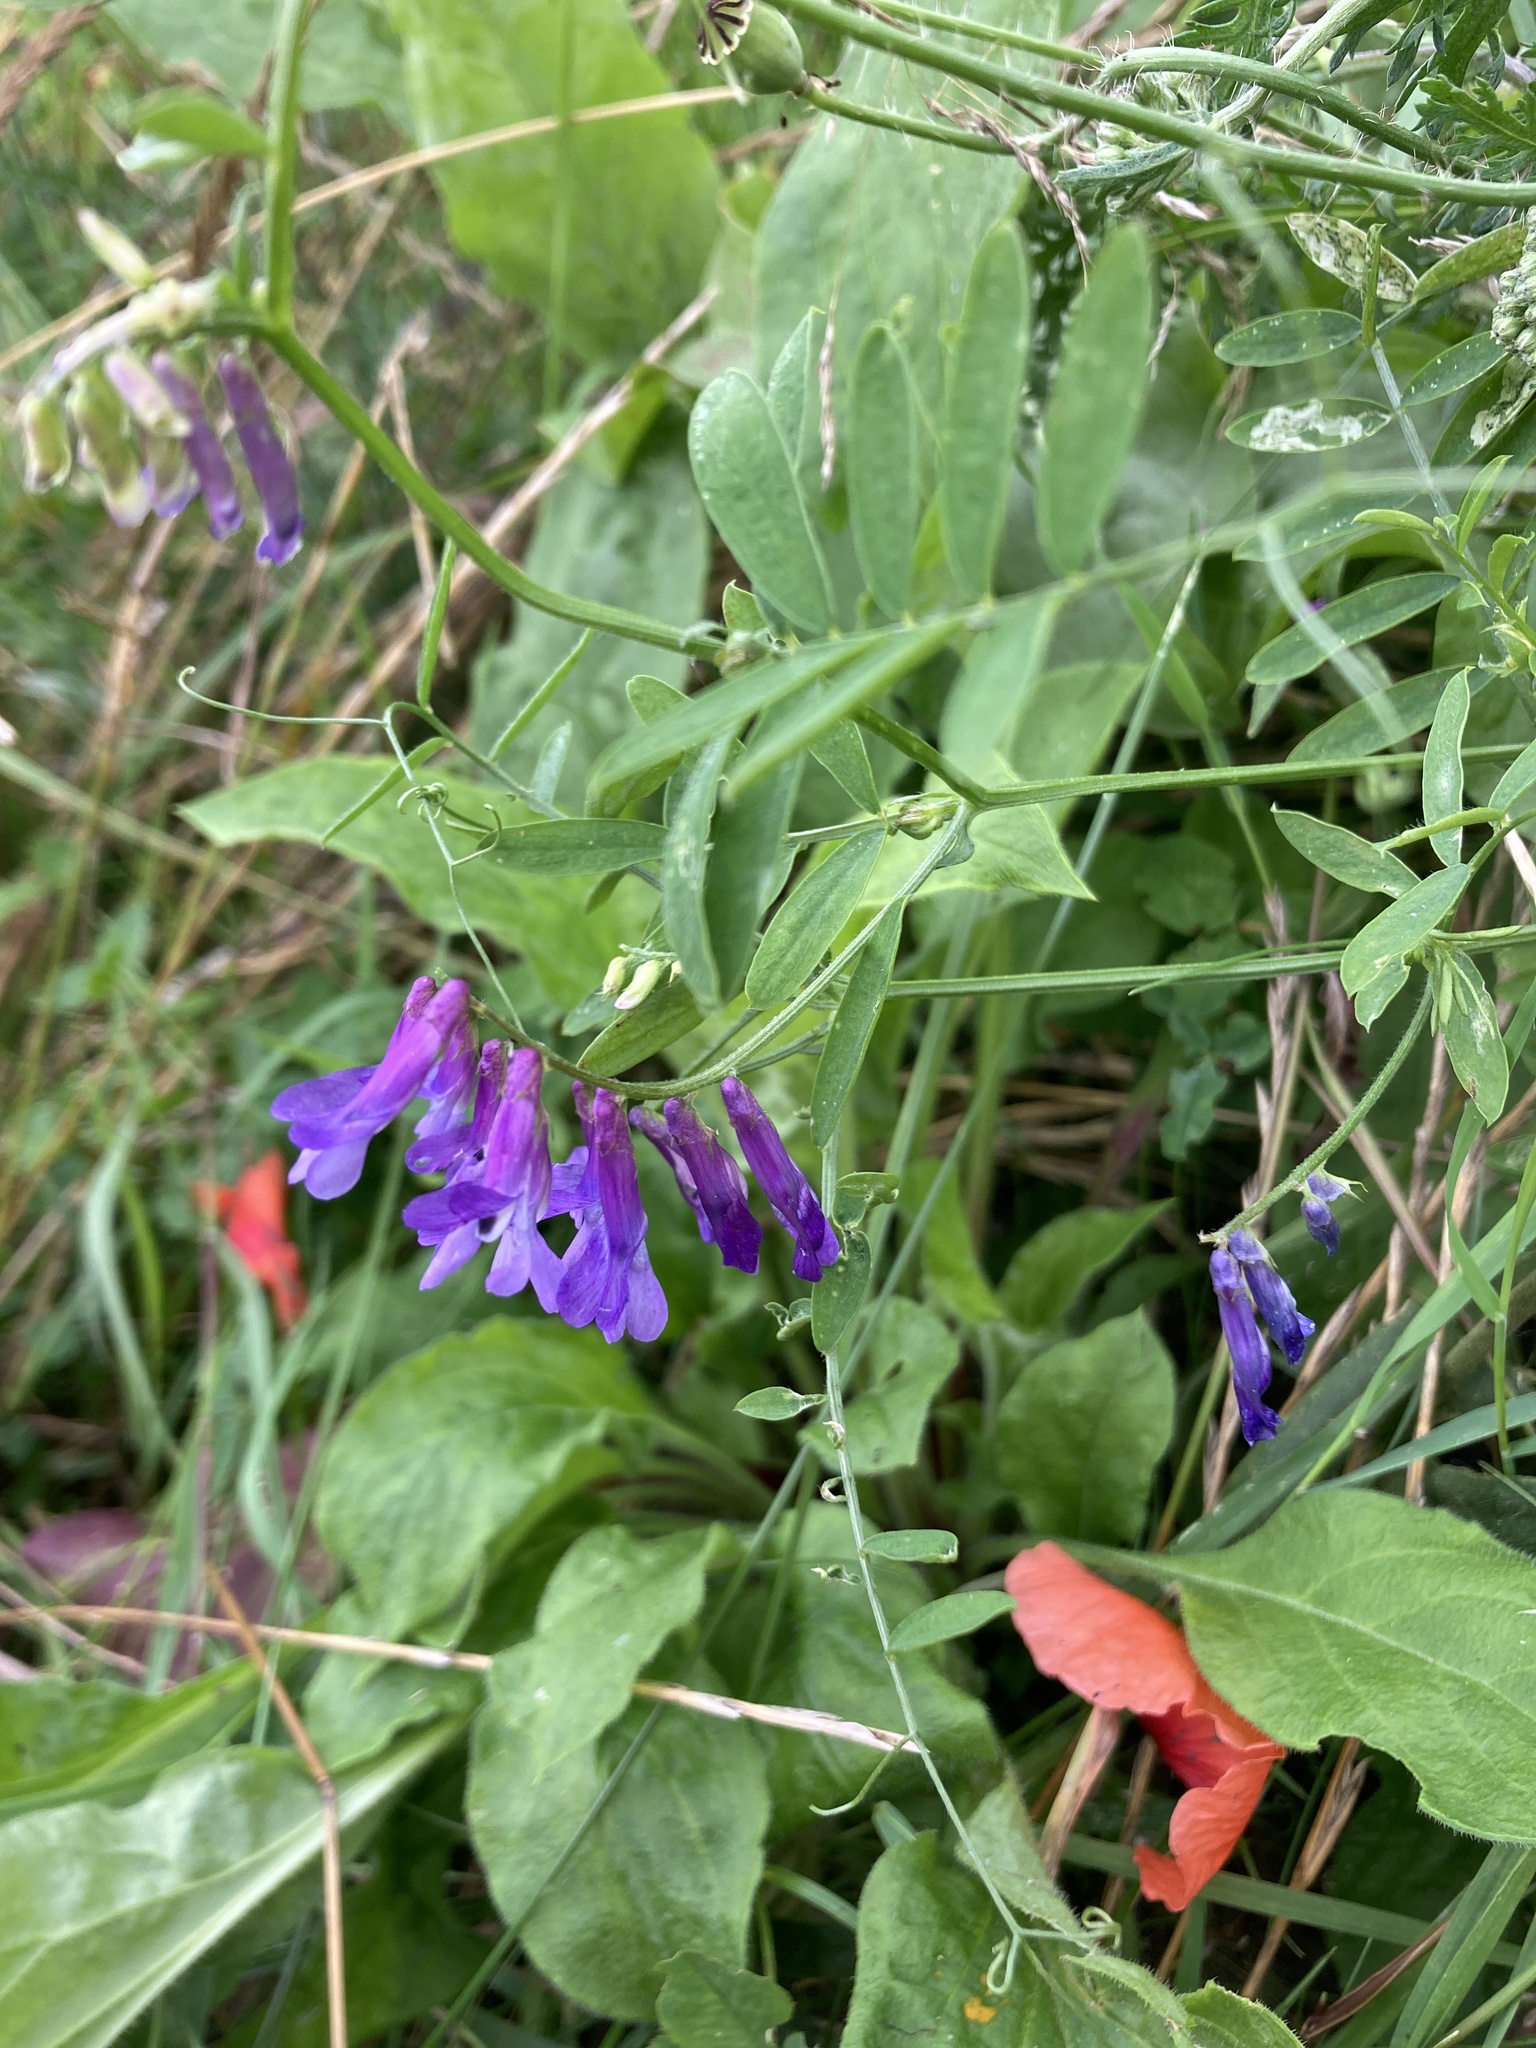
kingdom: Plantae
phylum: Tracheophyta
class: Magnoliopsida
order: Fabales
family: Fabaceae
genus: Vicia
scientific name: Vicia cracca
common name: Bird vetch
